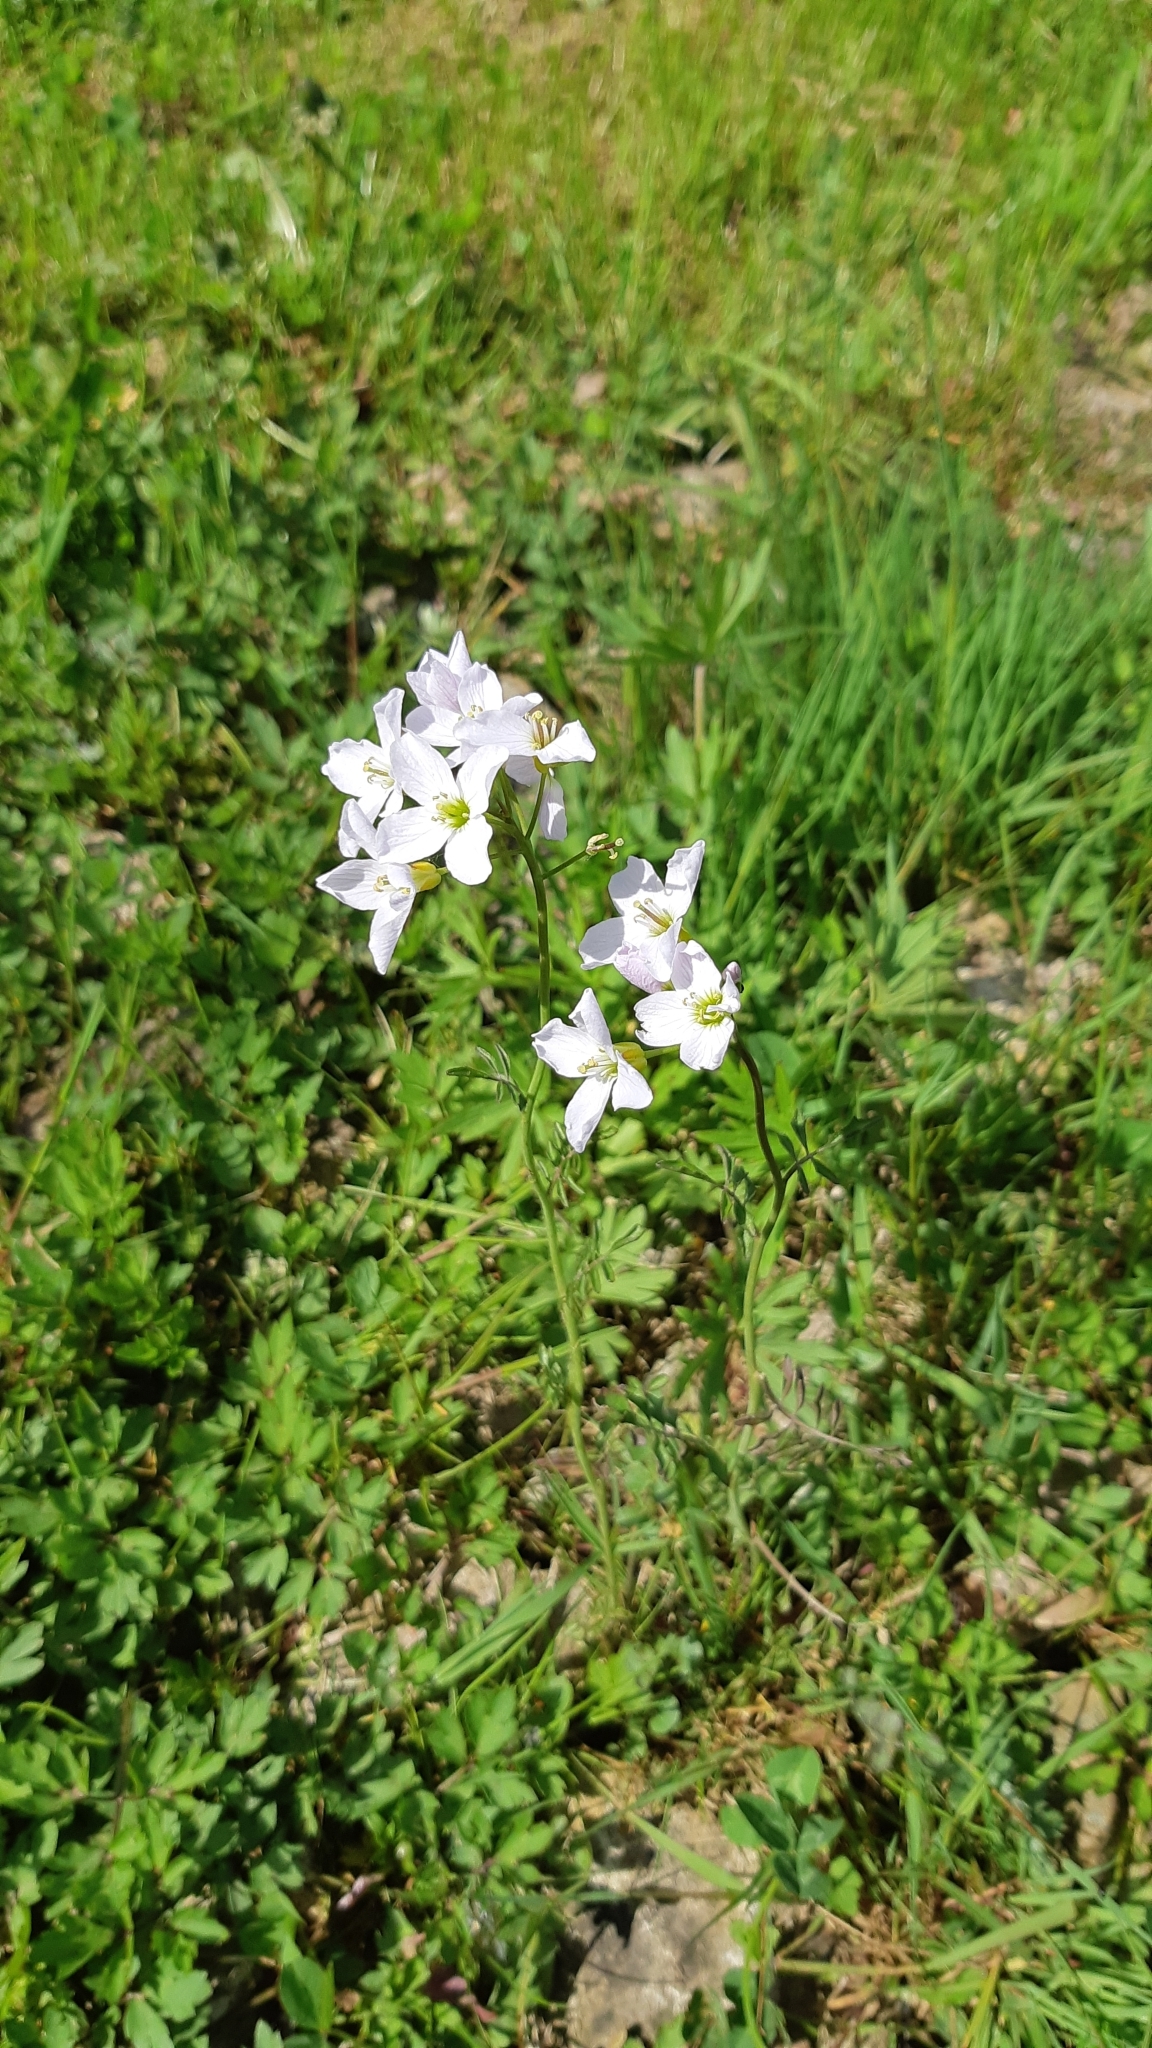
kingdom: Plantae
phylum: Tracheophyta
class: Magnoliopsida
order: Brassicales
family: Brassicaceae
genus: Cardamine
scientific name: Cardamine dentata
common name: Toothed bittercress
